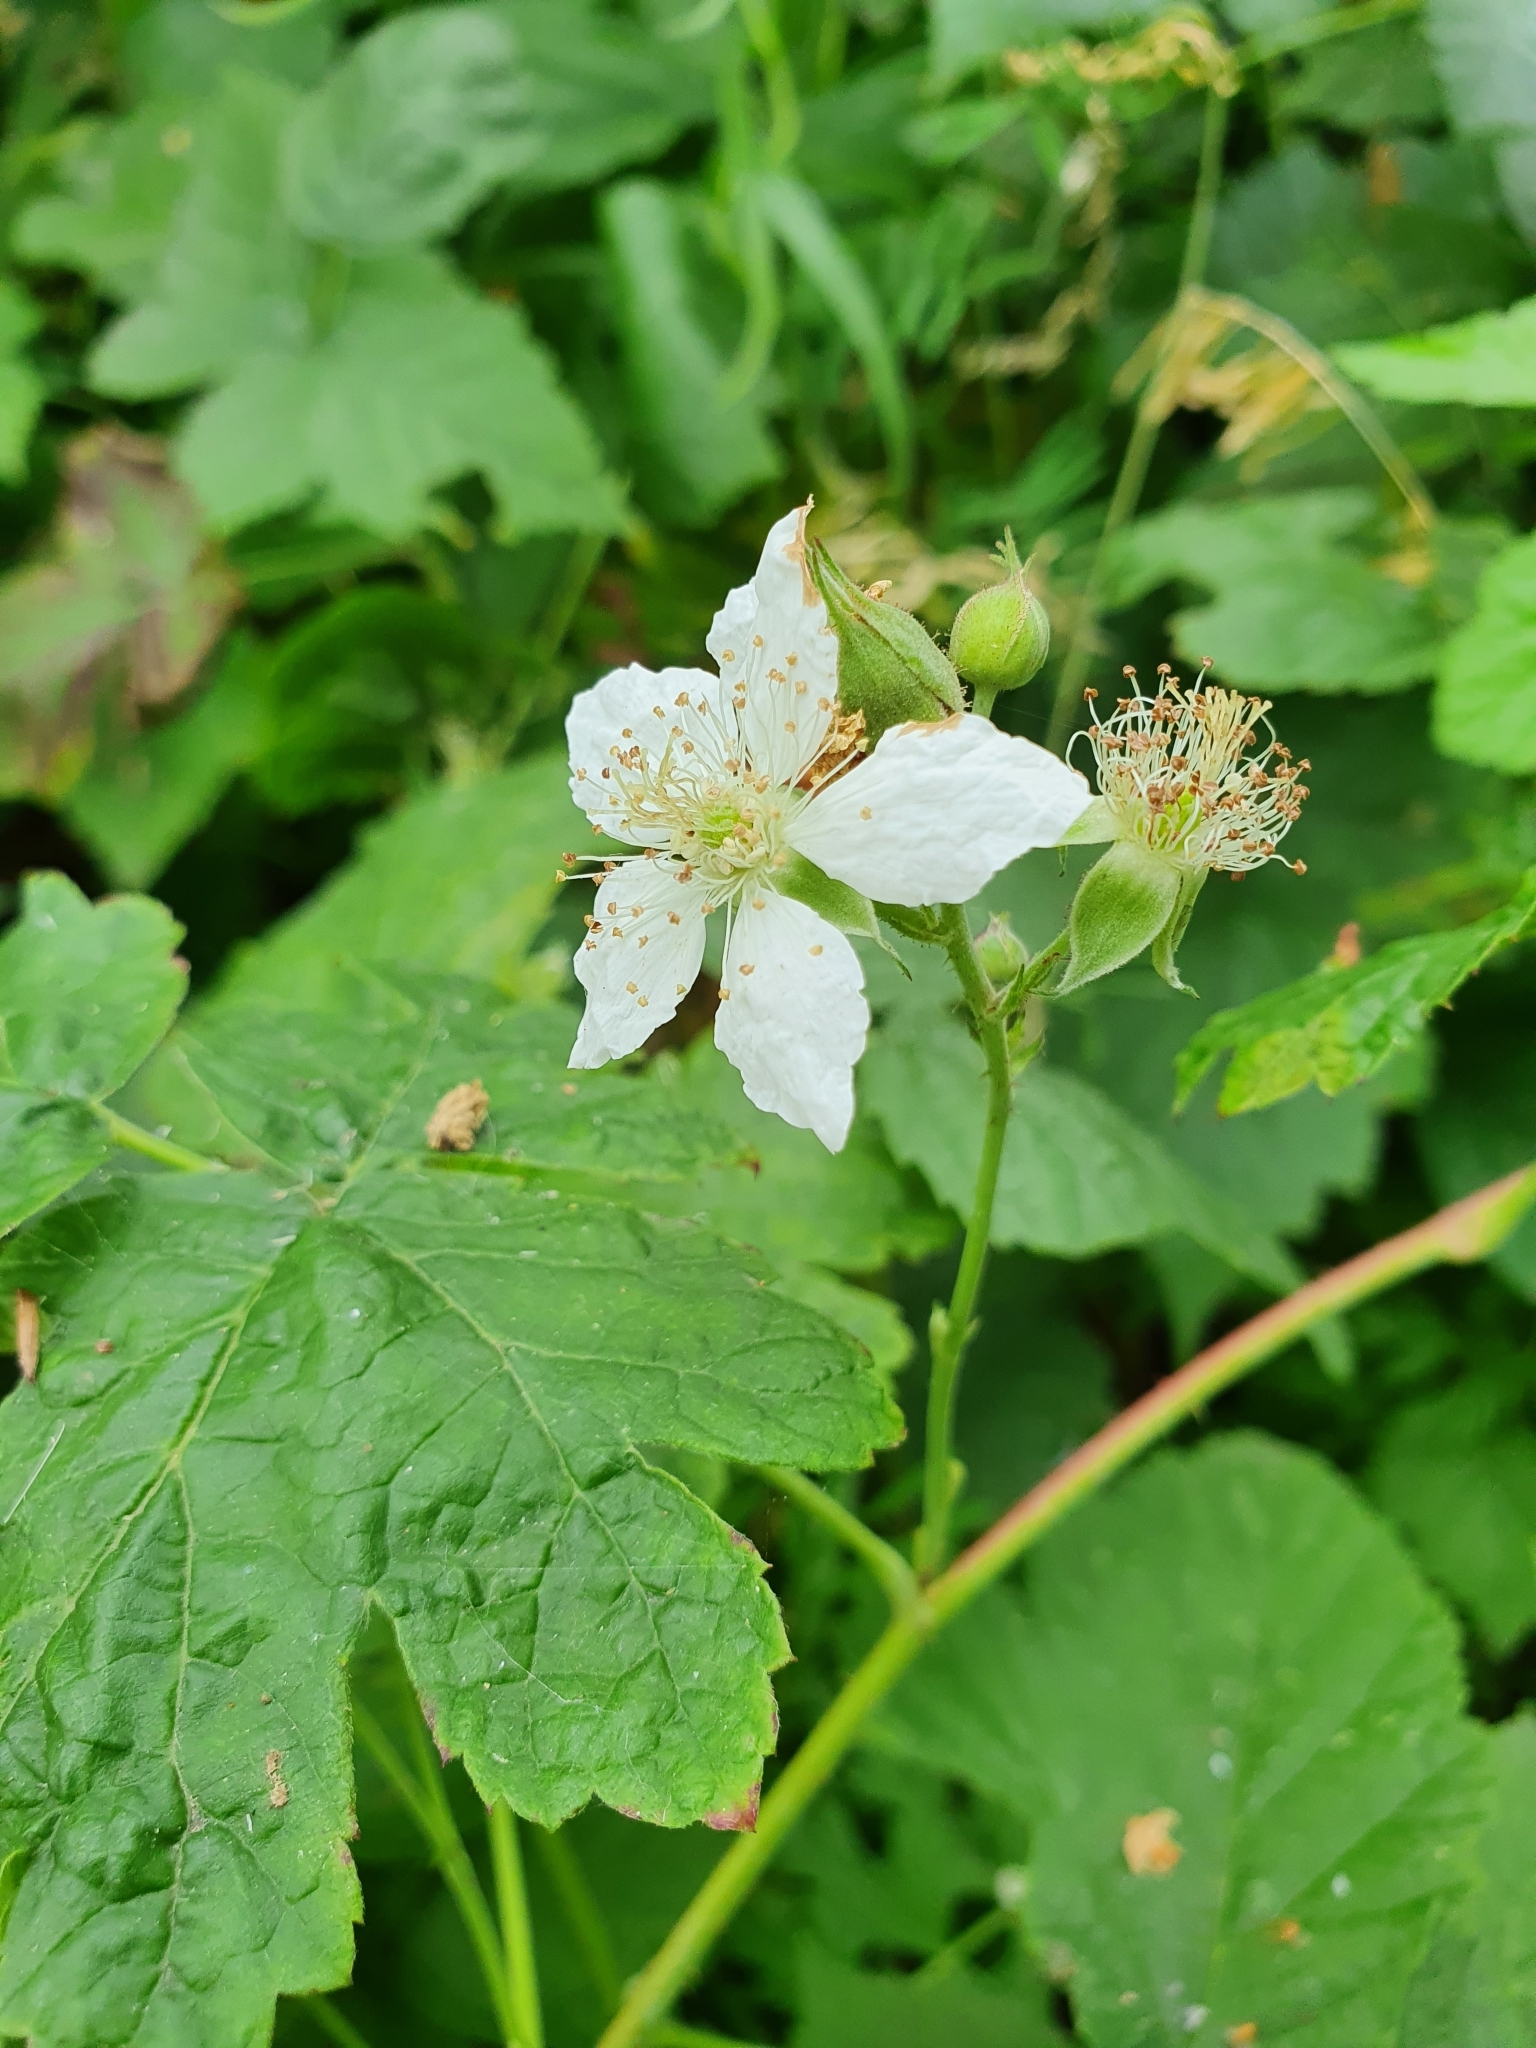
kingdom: Plantae
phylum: Tracheophyta
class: Magnoliopsida
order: Rosales
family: Rosaceae
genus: Rubus
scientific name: Rubus caesius
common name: Dewberry
